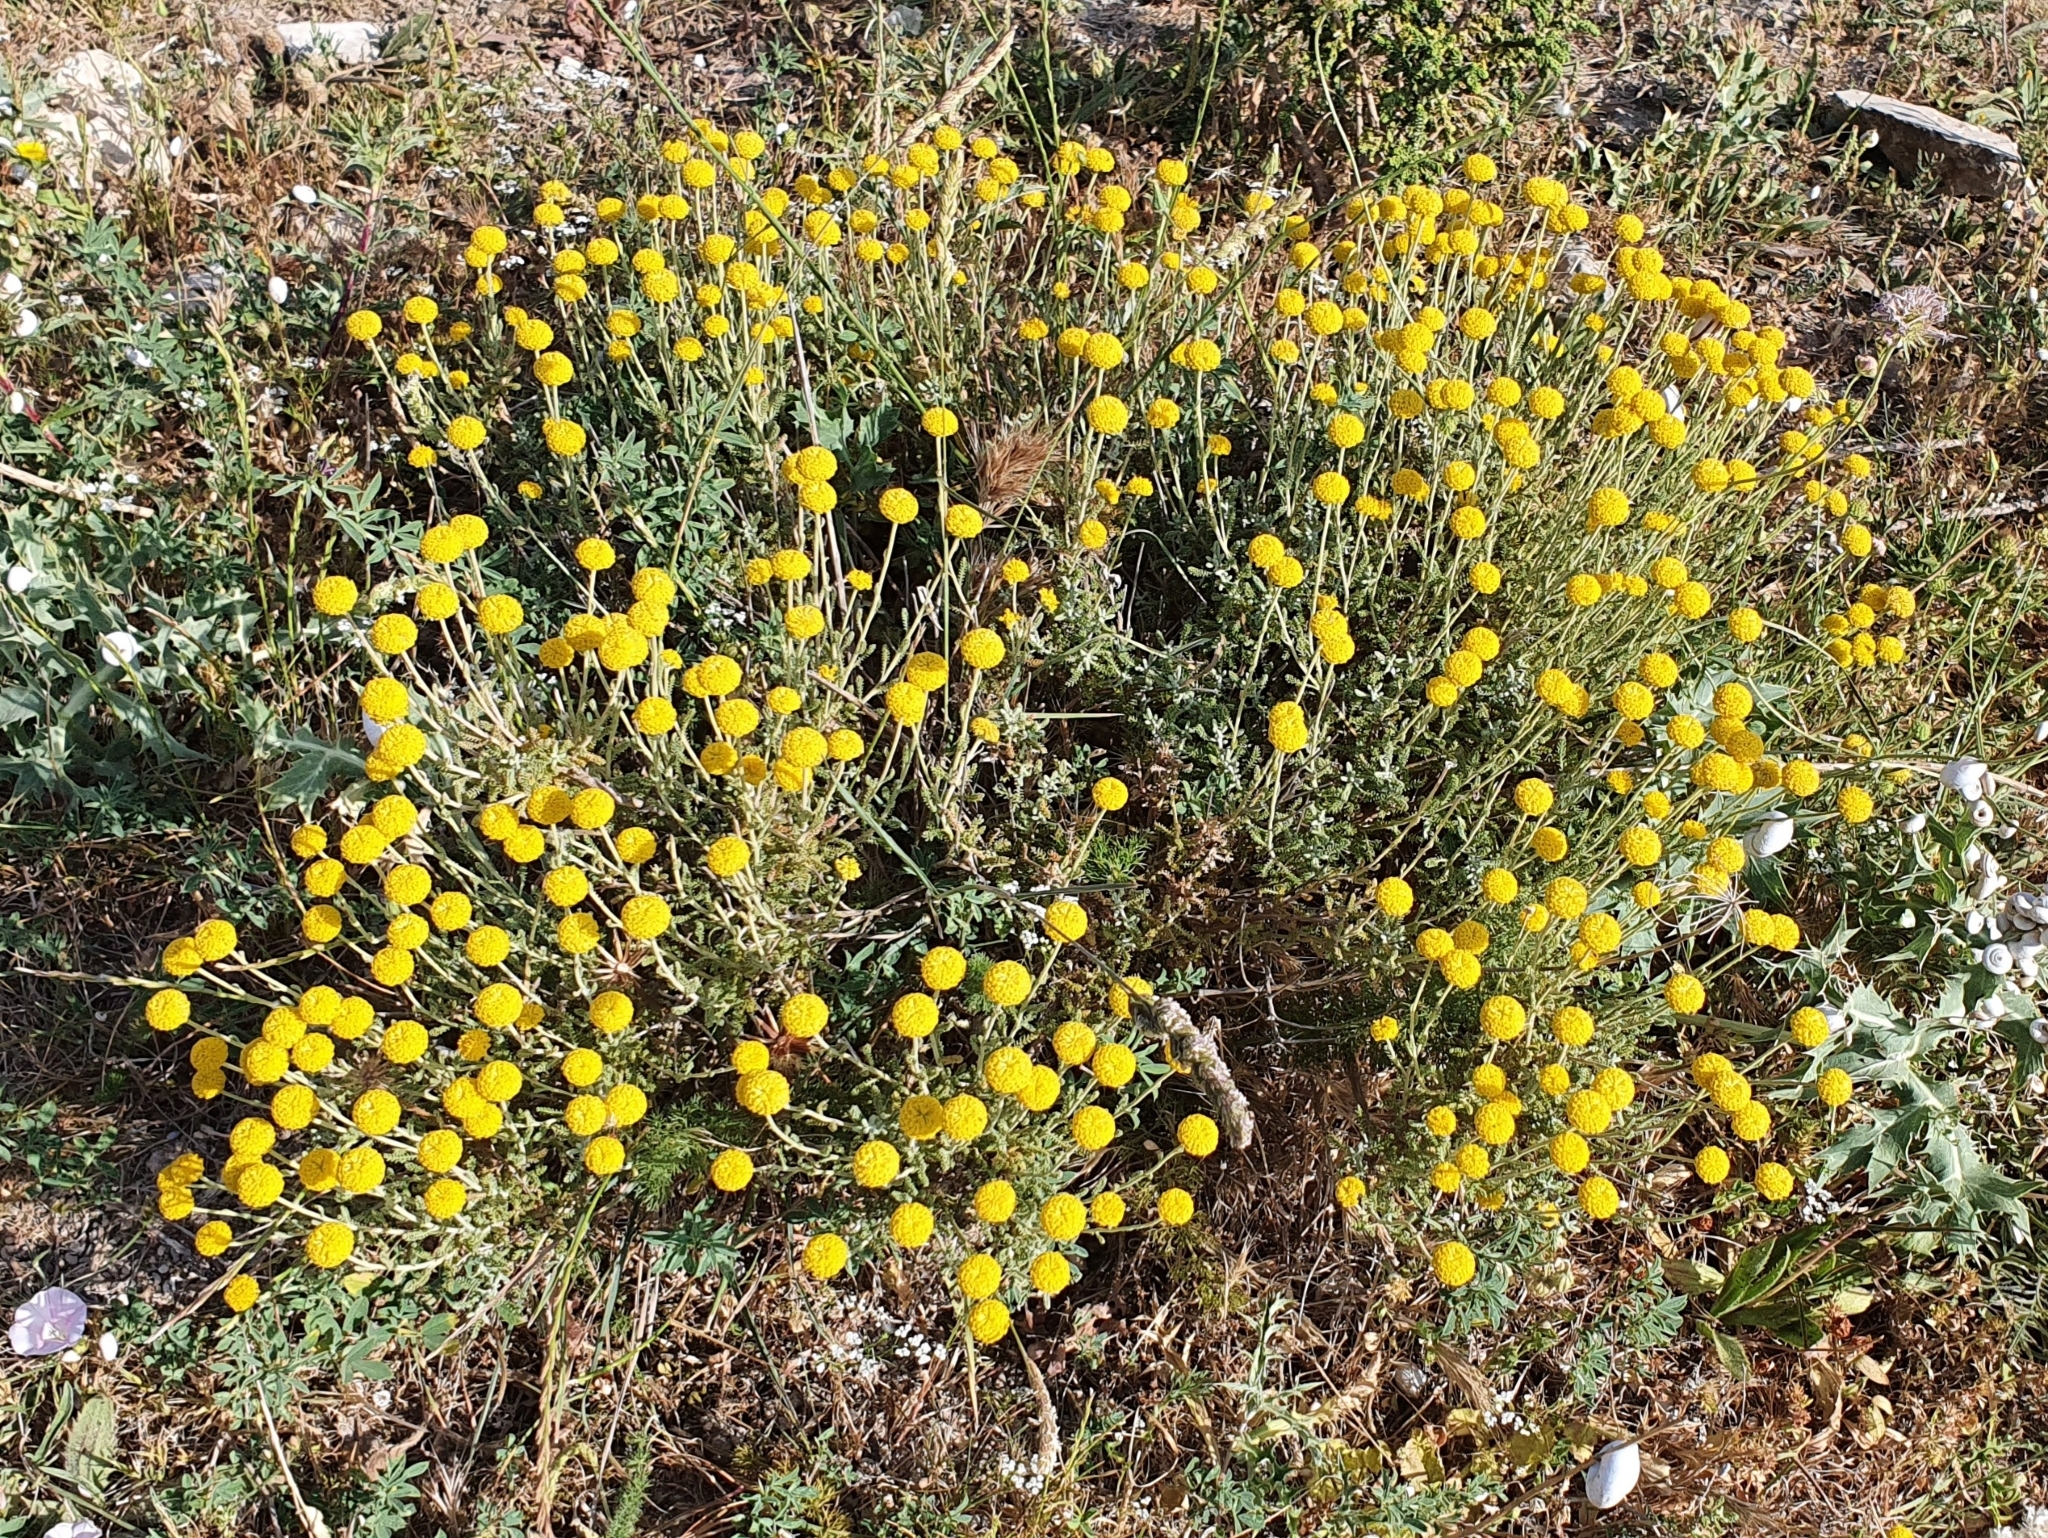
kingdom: Plantae
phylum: Tracheophyta
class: Magnoliopsida
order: Asterales
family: Asteraceae
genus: Santolina
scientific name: Santolina africana
